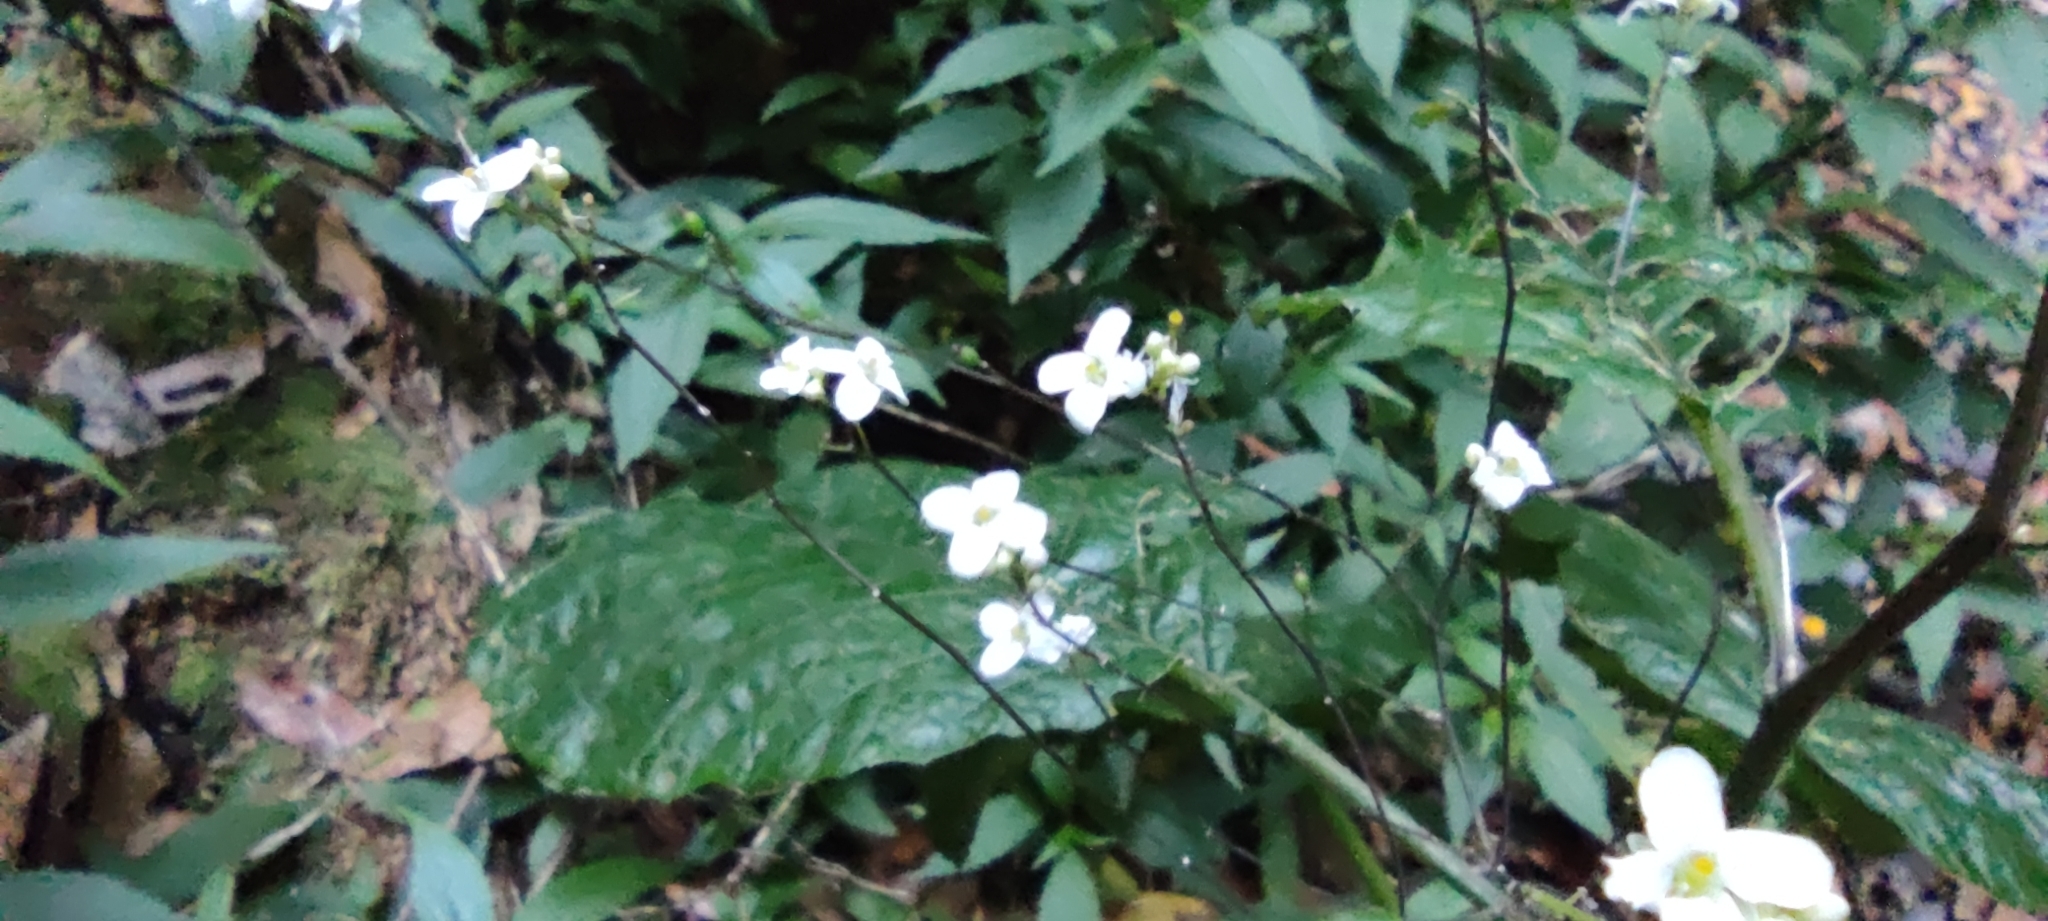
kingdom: Plantae
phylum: Tracheophyta
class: Magnoliopsida
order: Brassicales
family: Brassicaceae
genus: Crambe
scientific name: Crambe santosii
